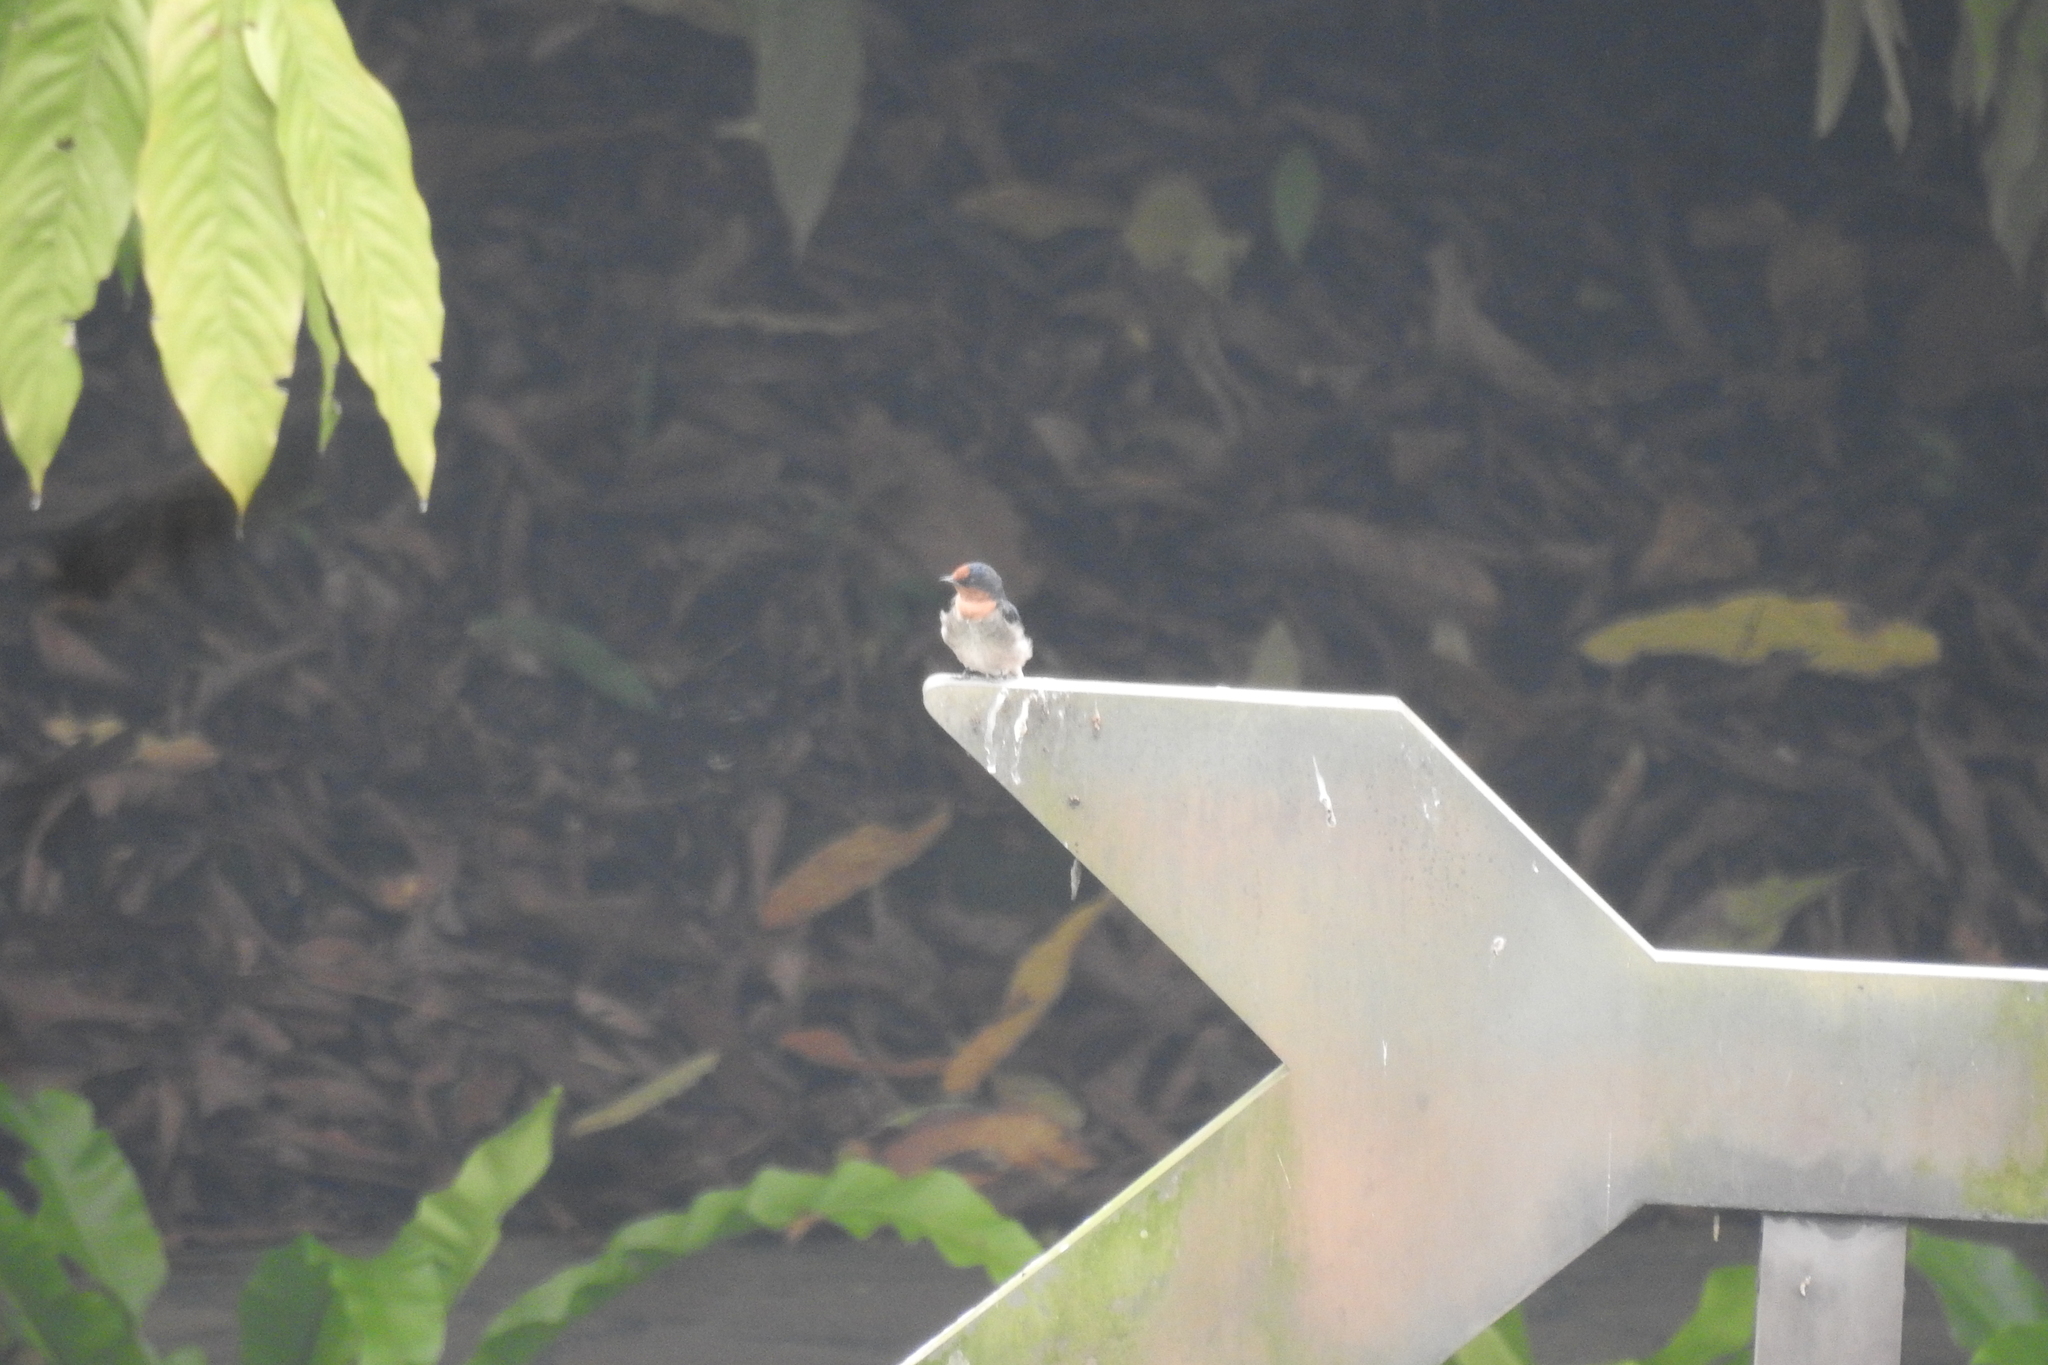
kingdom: Animalia
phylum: Chordata
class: Aves
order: Passeriformes
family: Hirundinidae
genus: Hirundo
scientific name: Hirundo tahitica
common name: Pacific swallow
